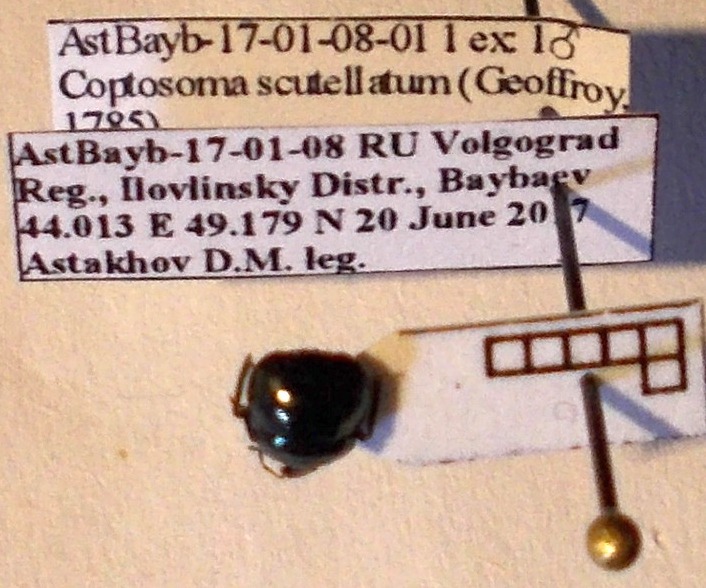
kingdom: Animalia
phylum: Arthropoda
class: Insecta
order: Hemiptera
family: Plataspidae
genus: Coptosoma
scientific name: Coptosoma scutellatum
